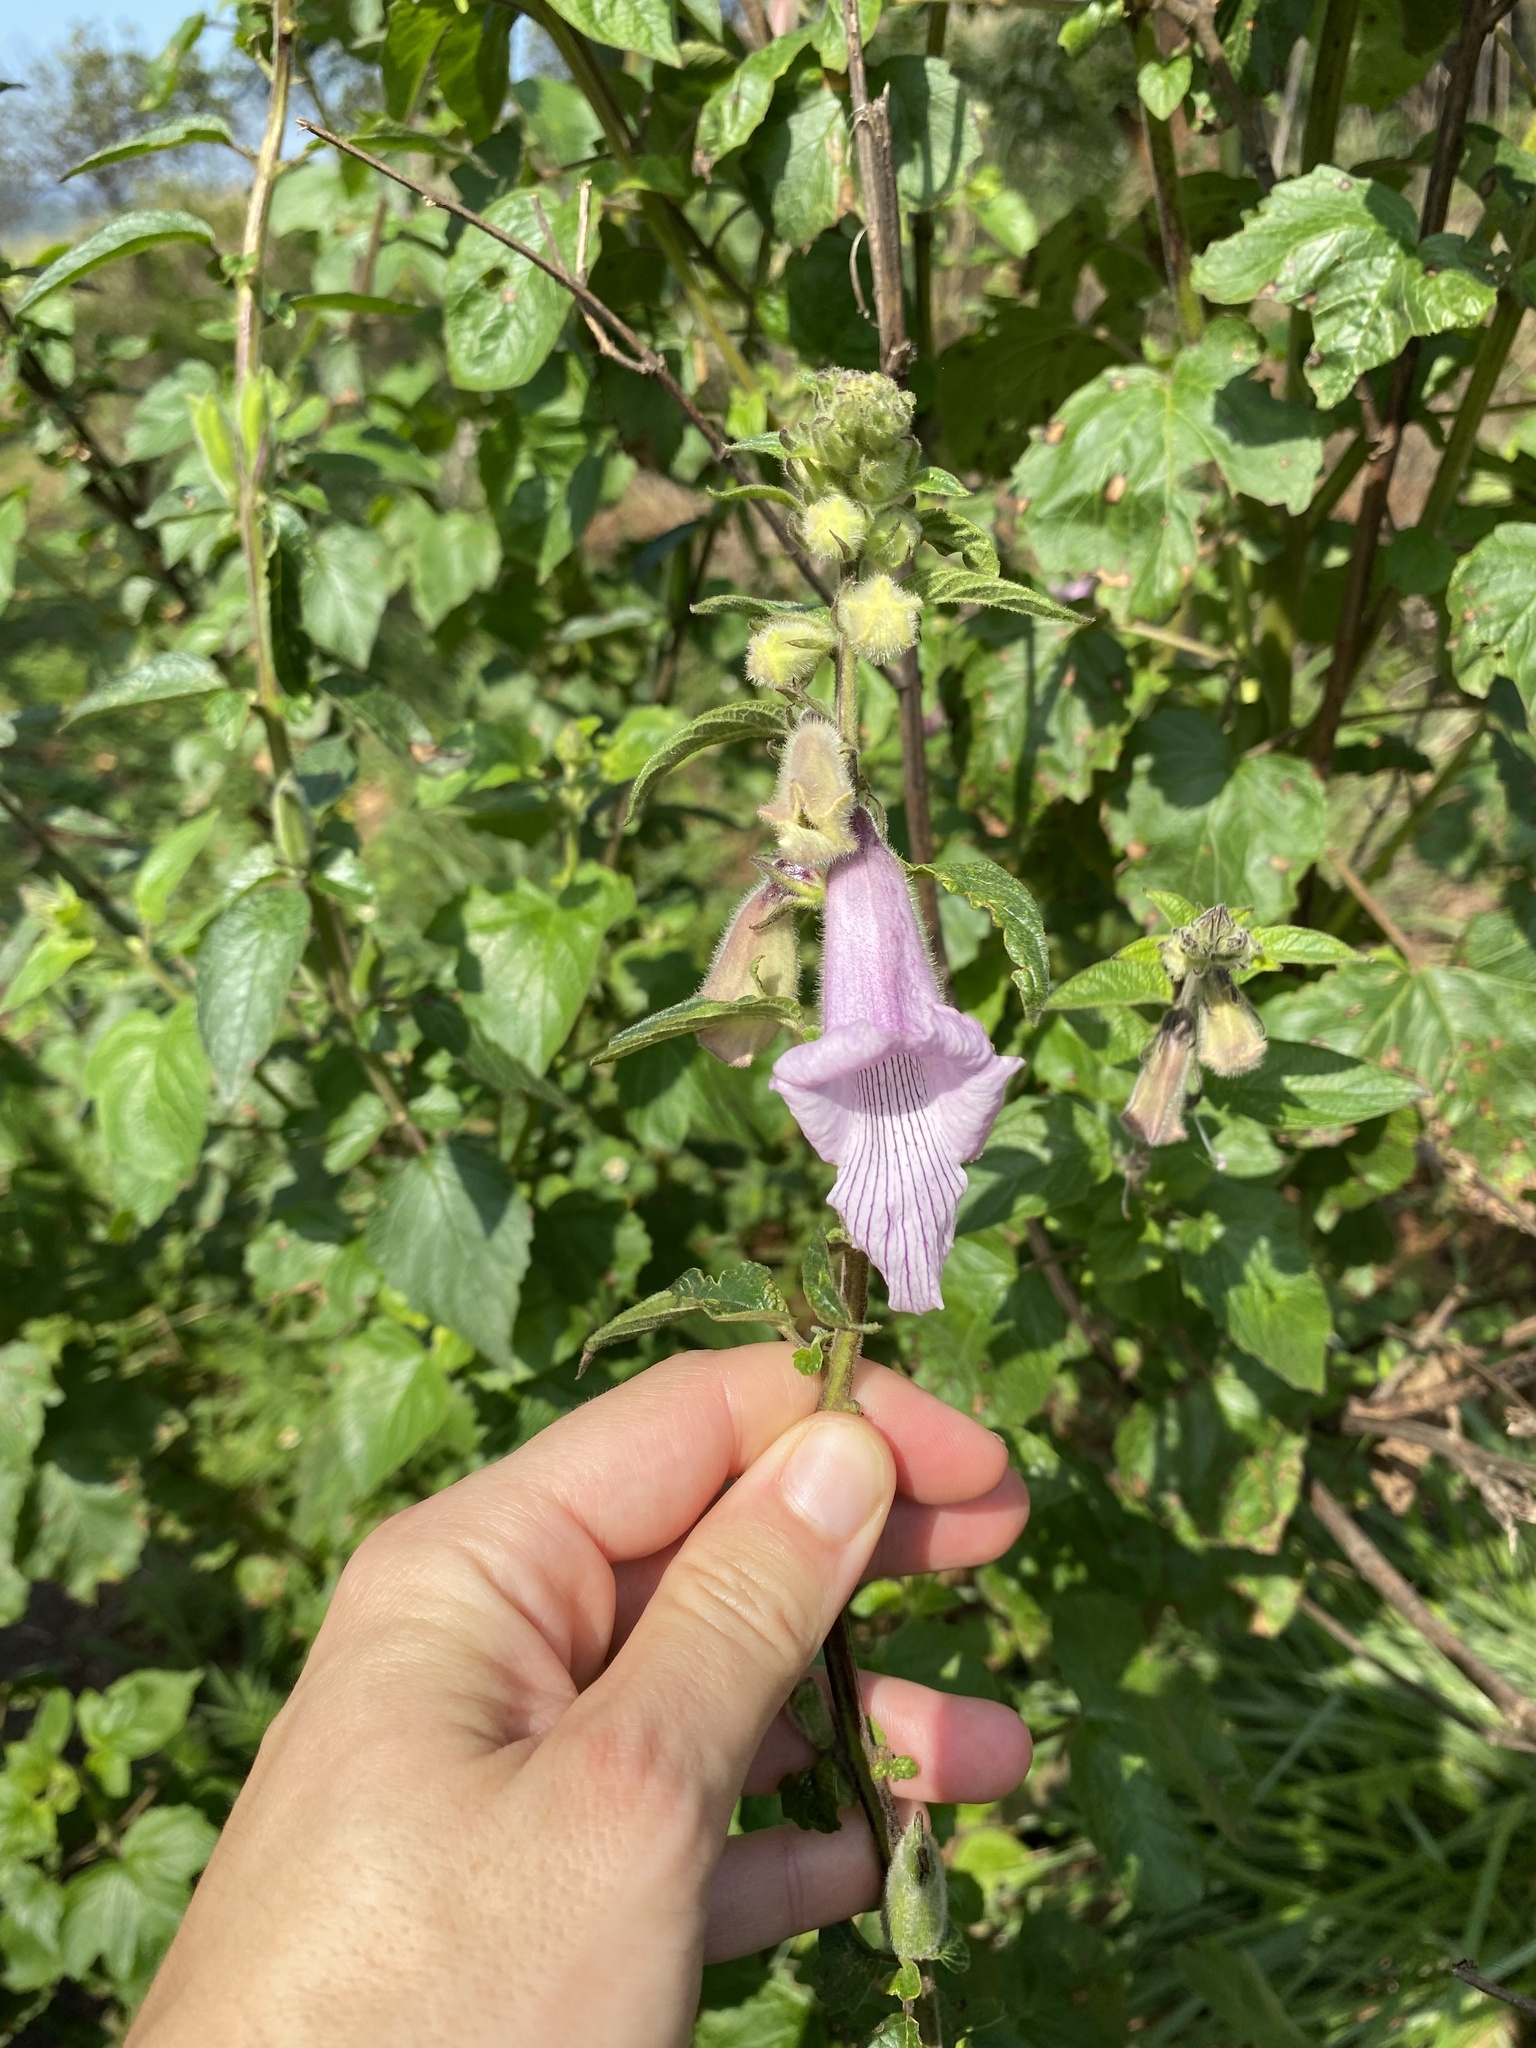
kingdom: Plantae
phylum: Tracheophyta
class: Magnoliopsida
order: Lamiales
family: Pedaliaceae
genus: Sesamum
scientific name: Sesamum trilobum
